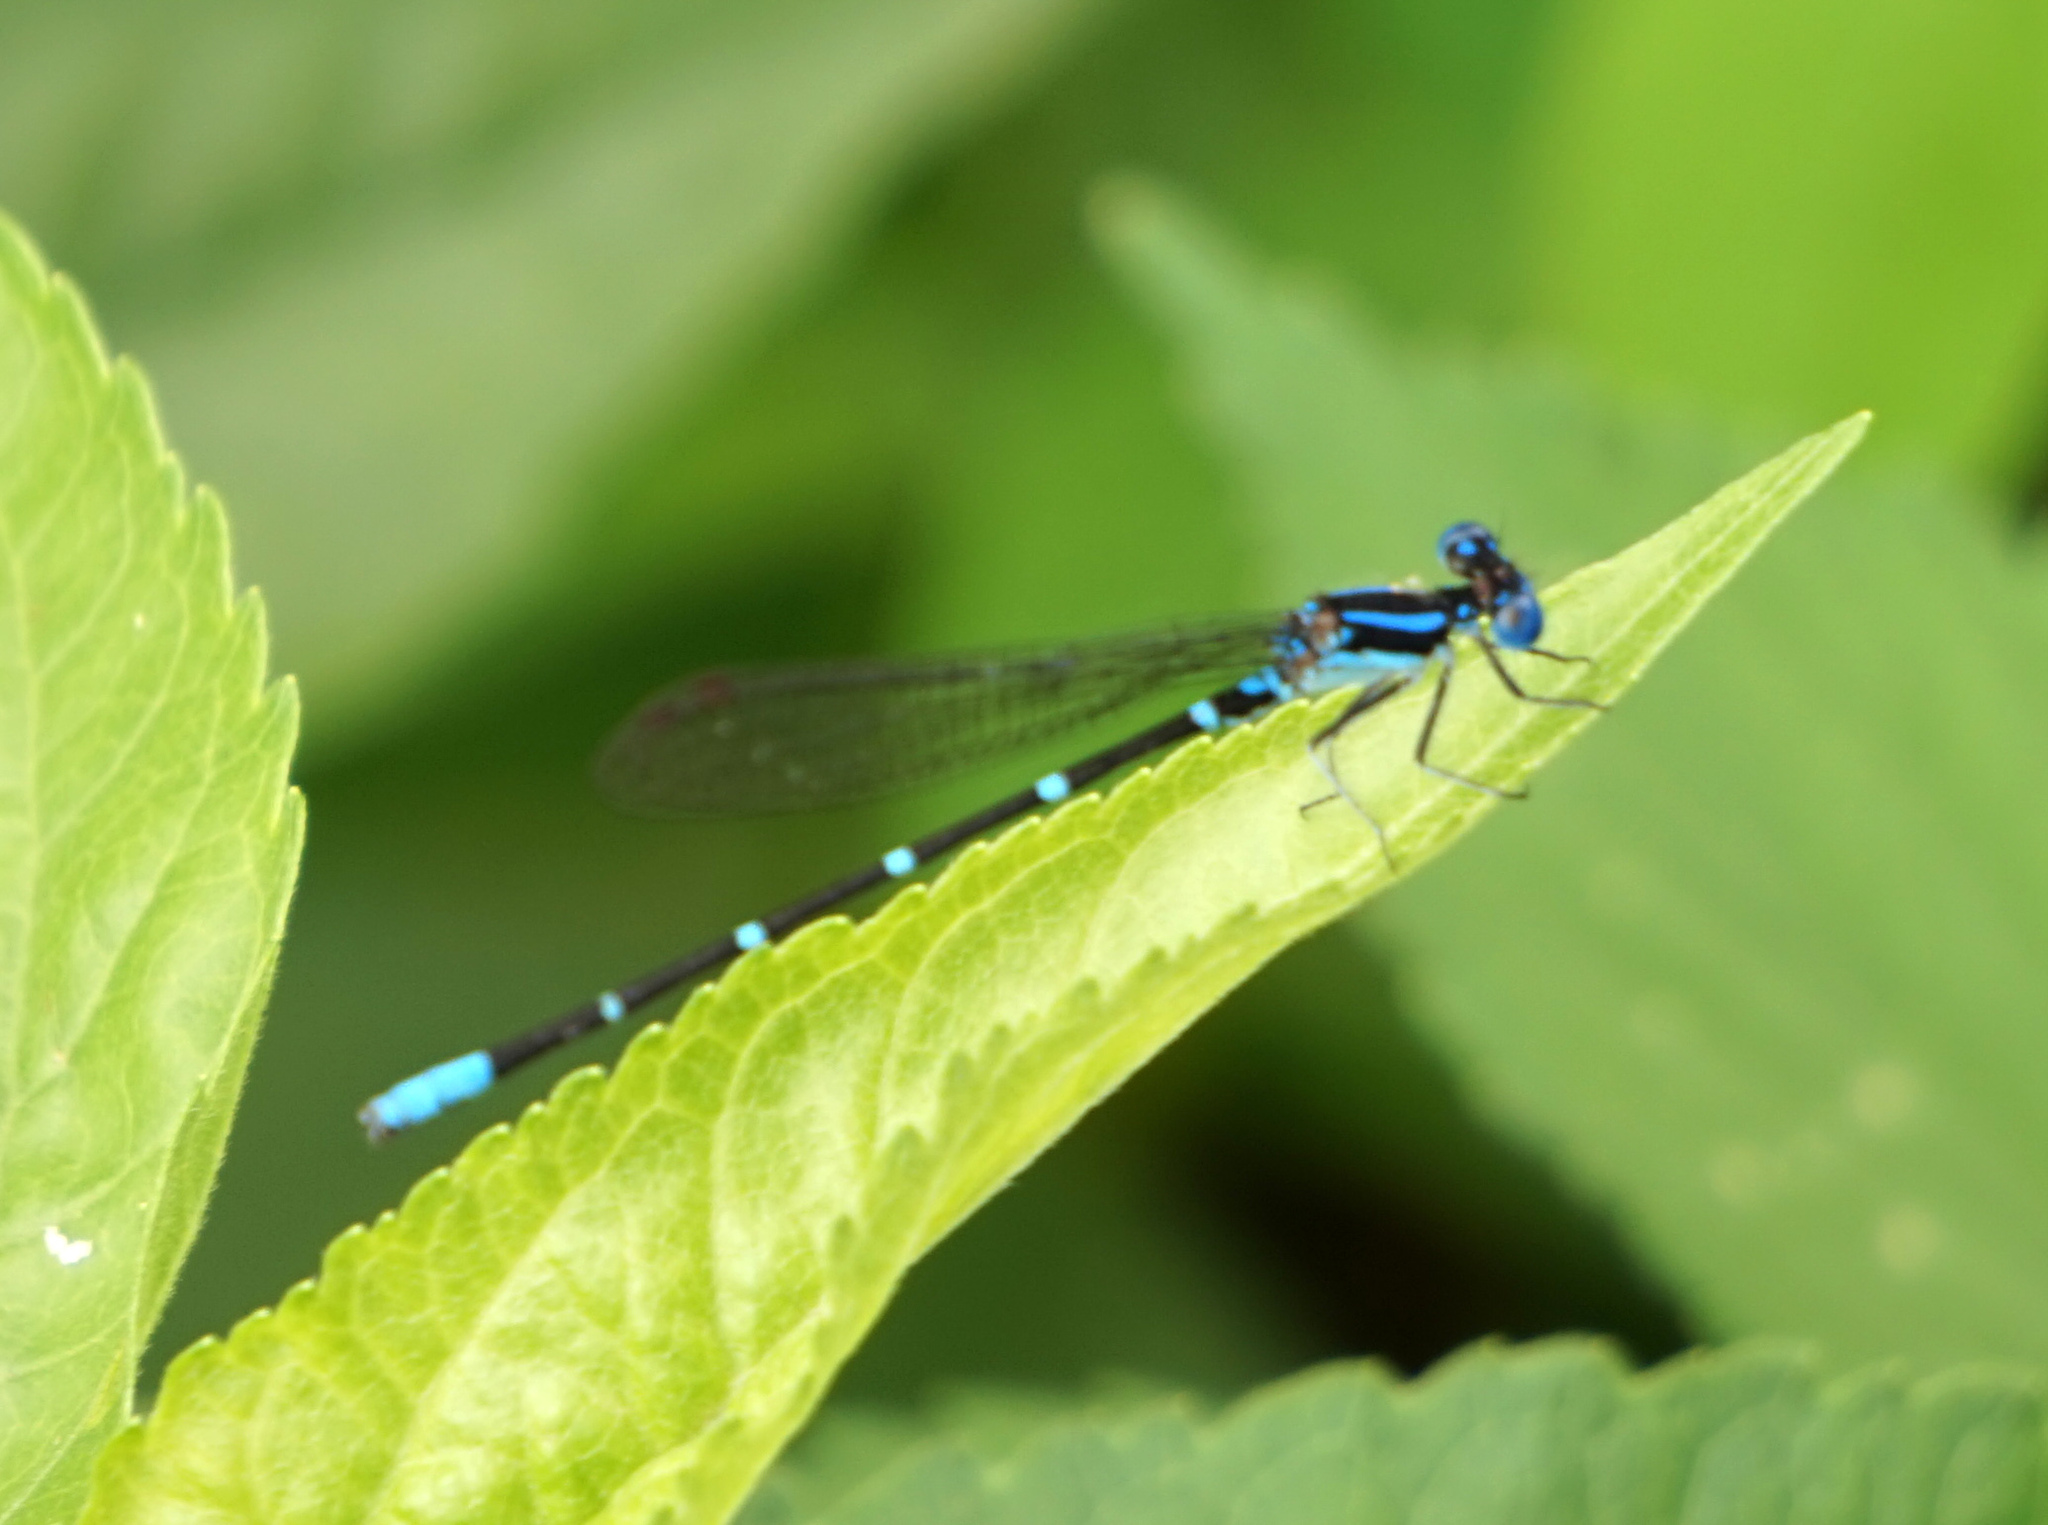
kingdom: Animalia
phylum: Arthropoda
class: Insecta
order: Odonata
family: Coenagrionidae
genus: Argia
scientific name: Argia sedula
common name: Blue-ringed dancer
